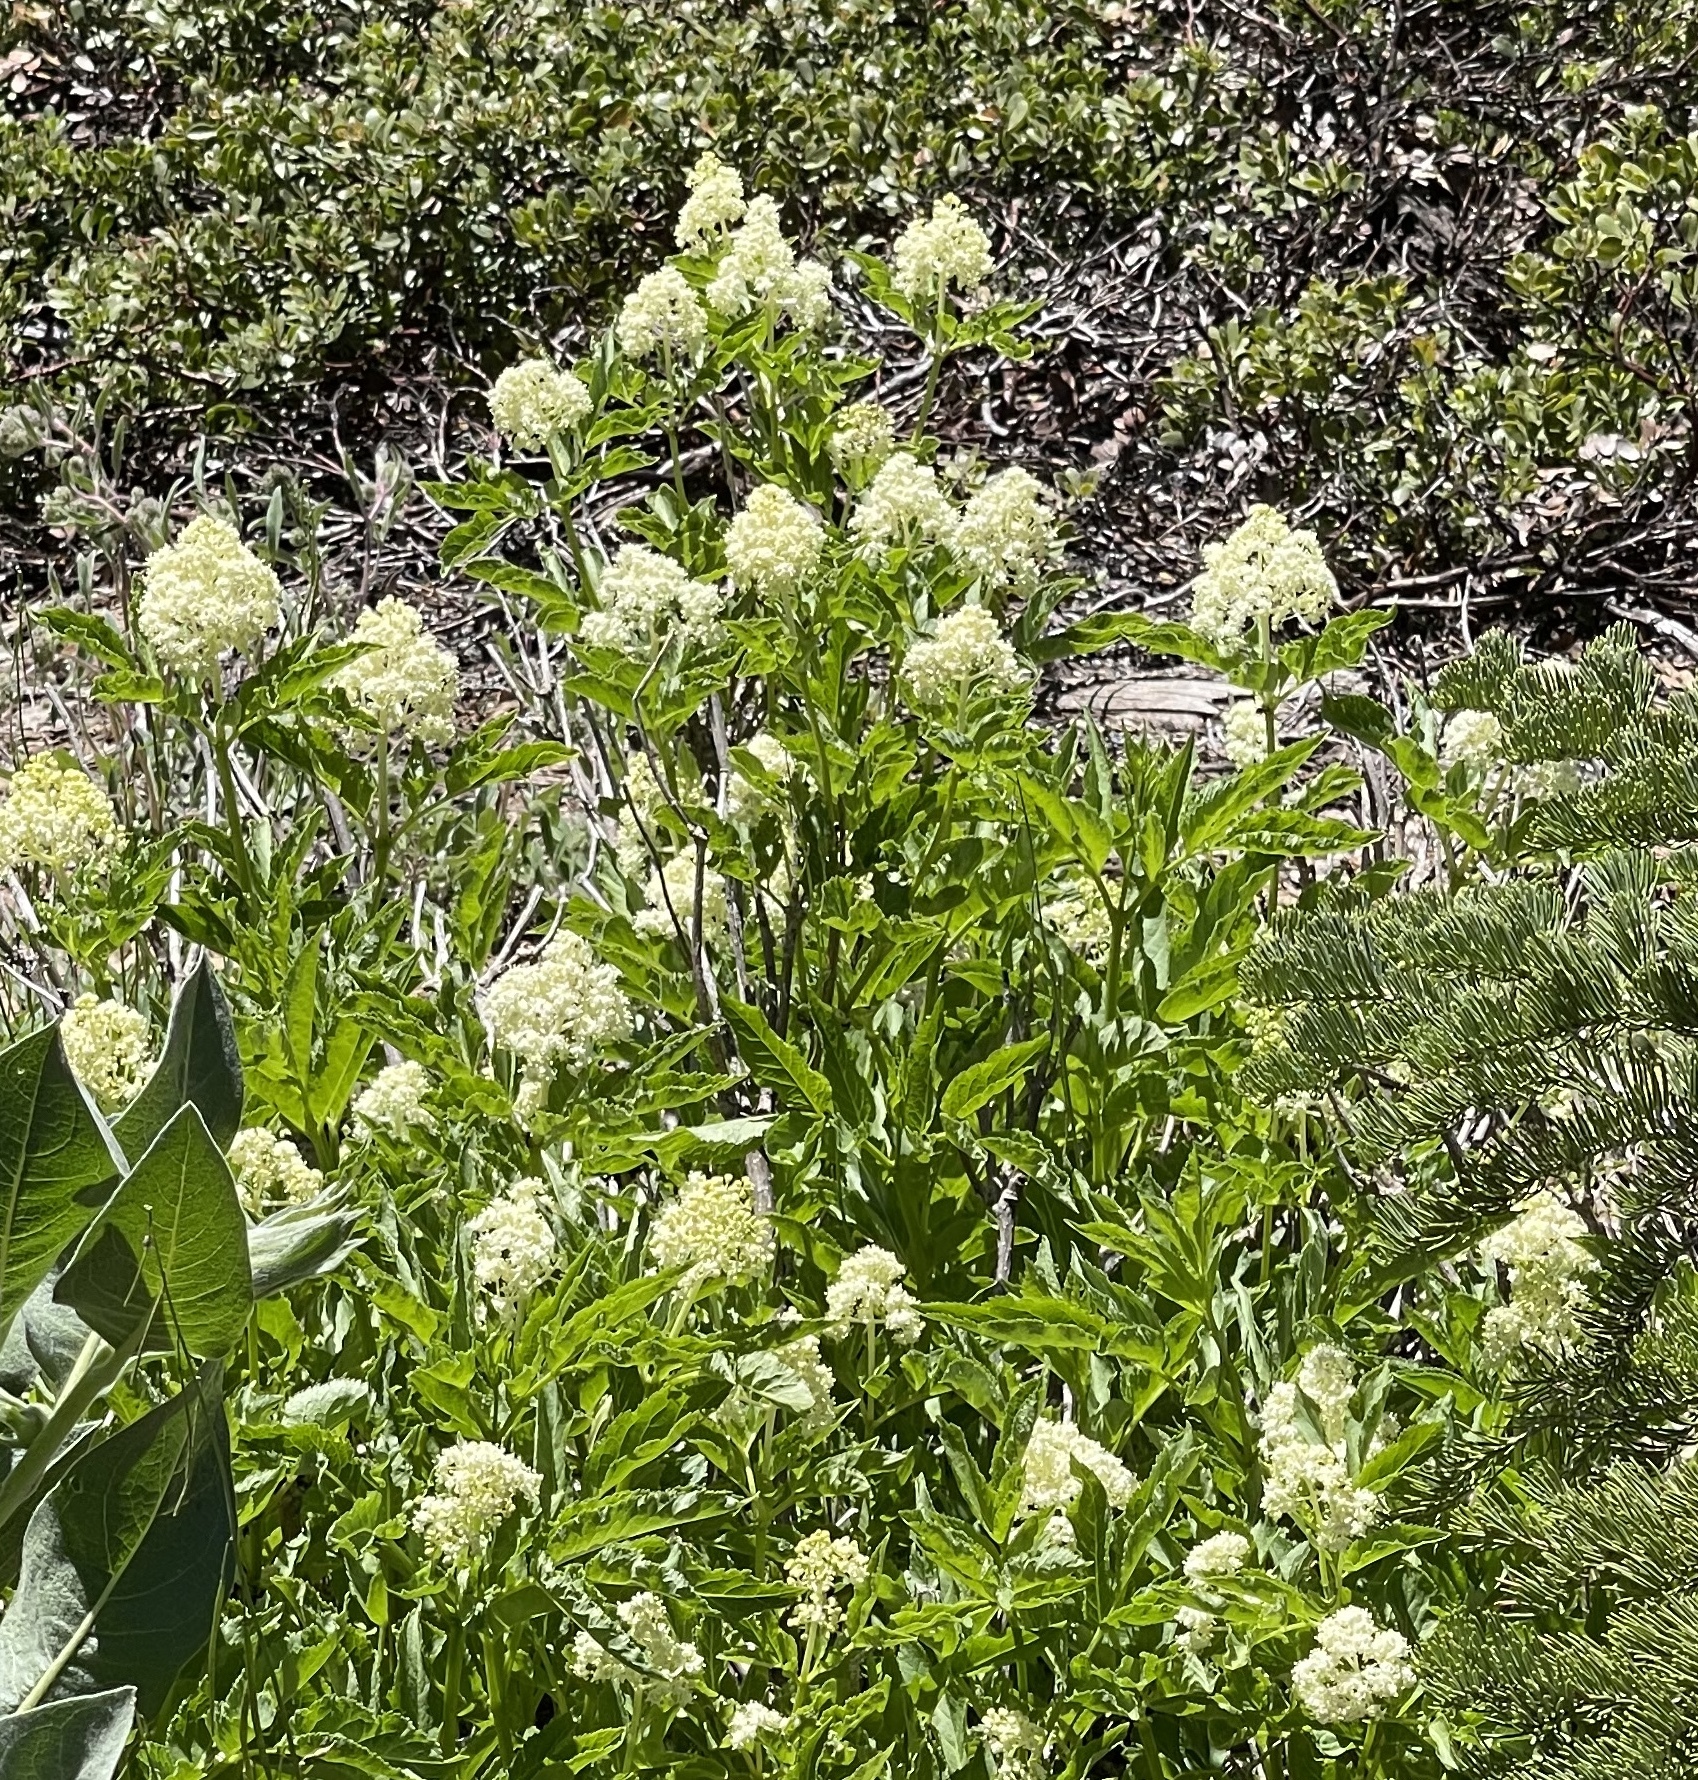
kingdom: Plantae
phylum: Tracheophyta
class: Magnoliopsida
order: Dipsacales
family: Viburnaceae
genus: Sambucus
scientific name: Sambucus racemosa
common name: Red-berried elder
